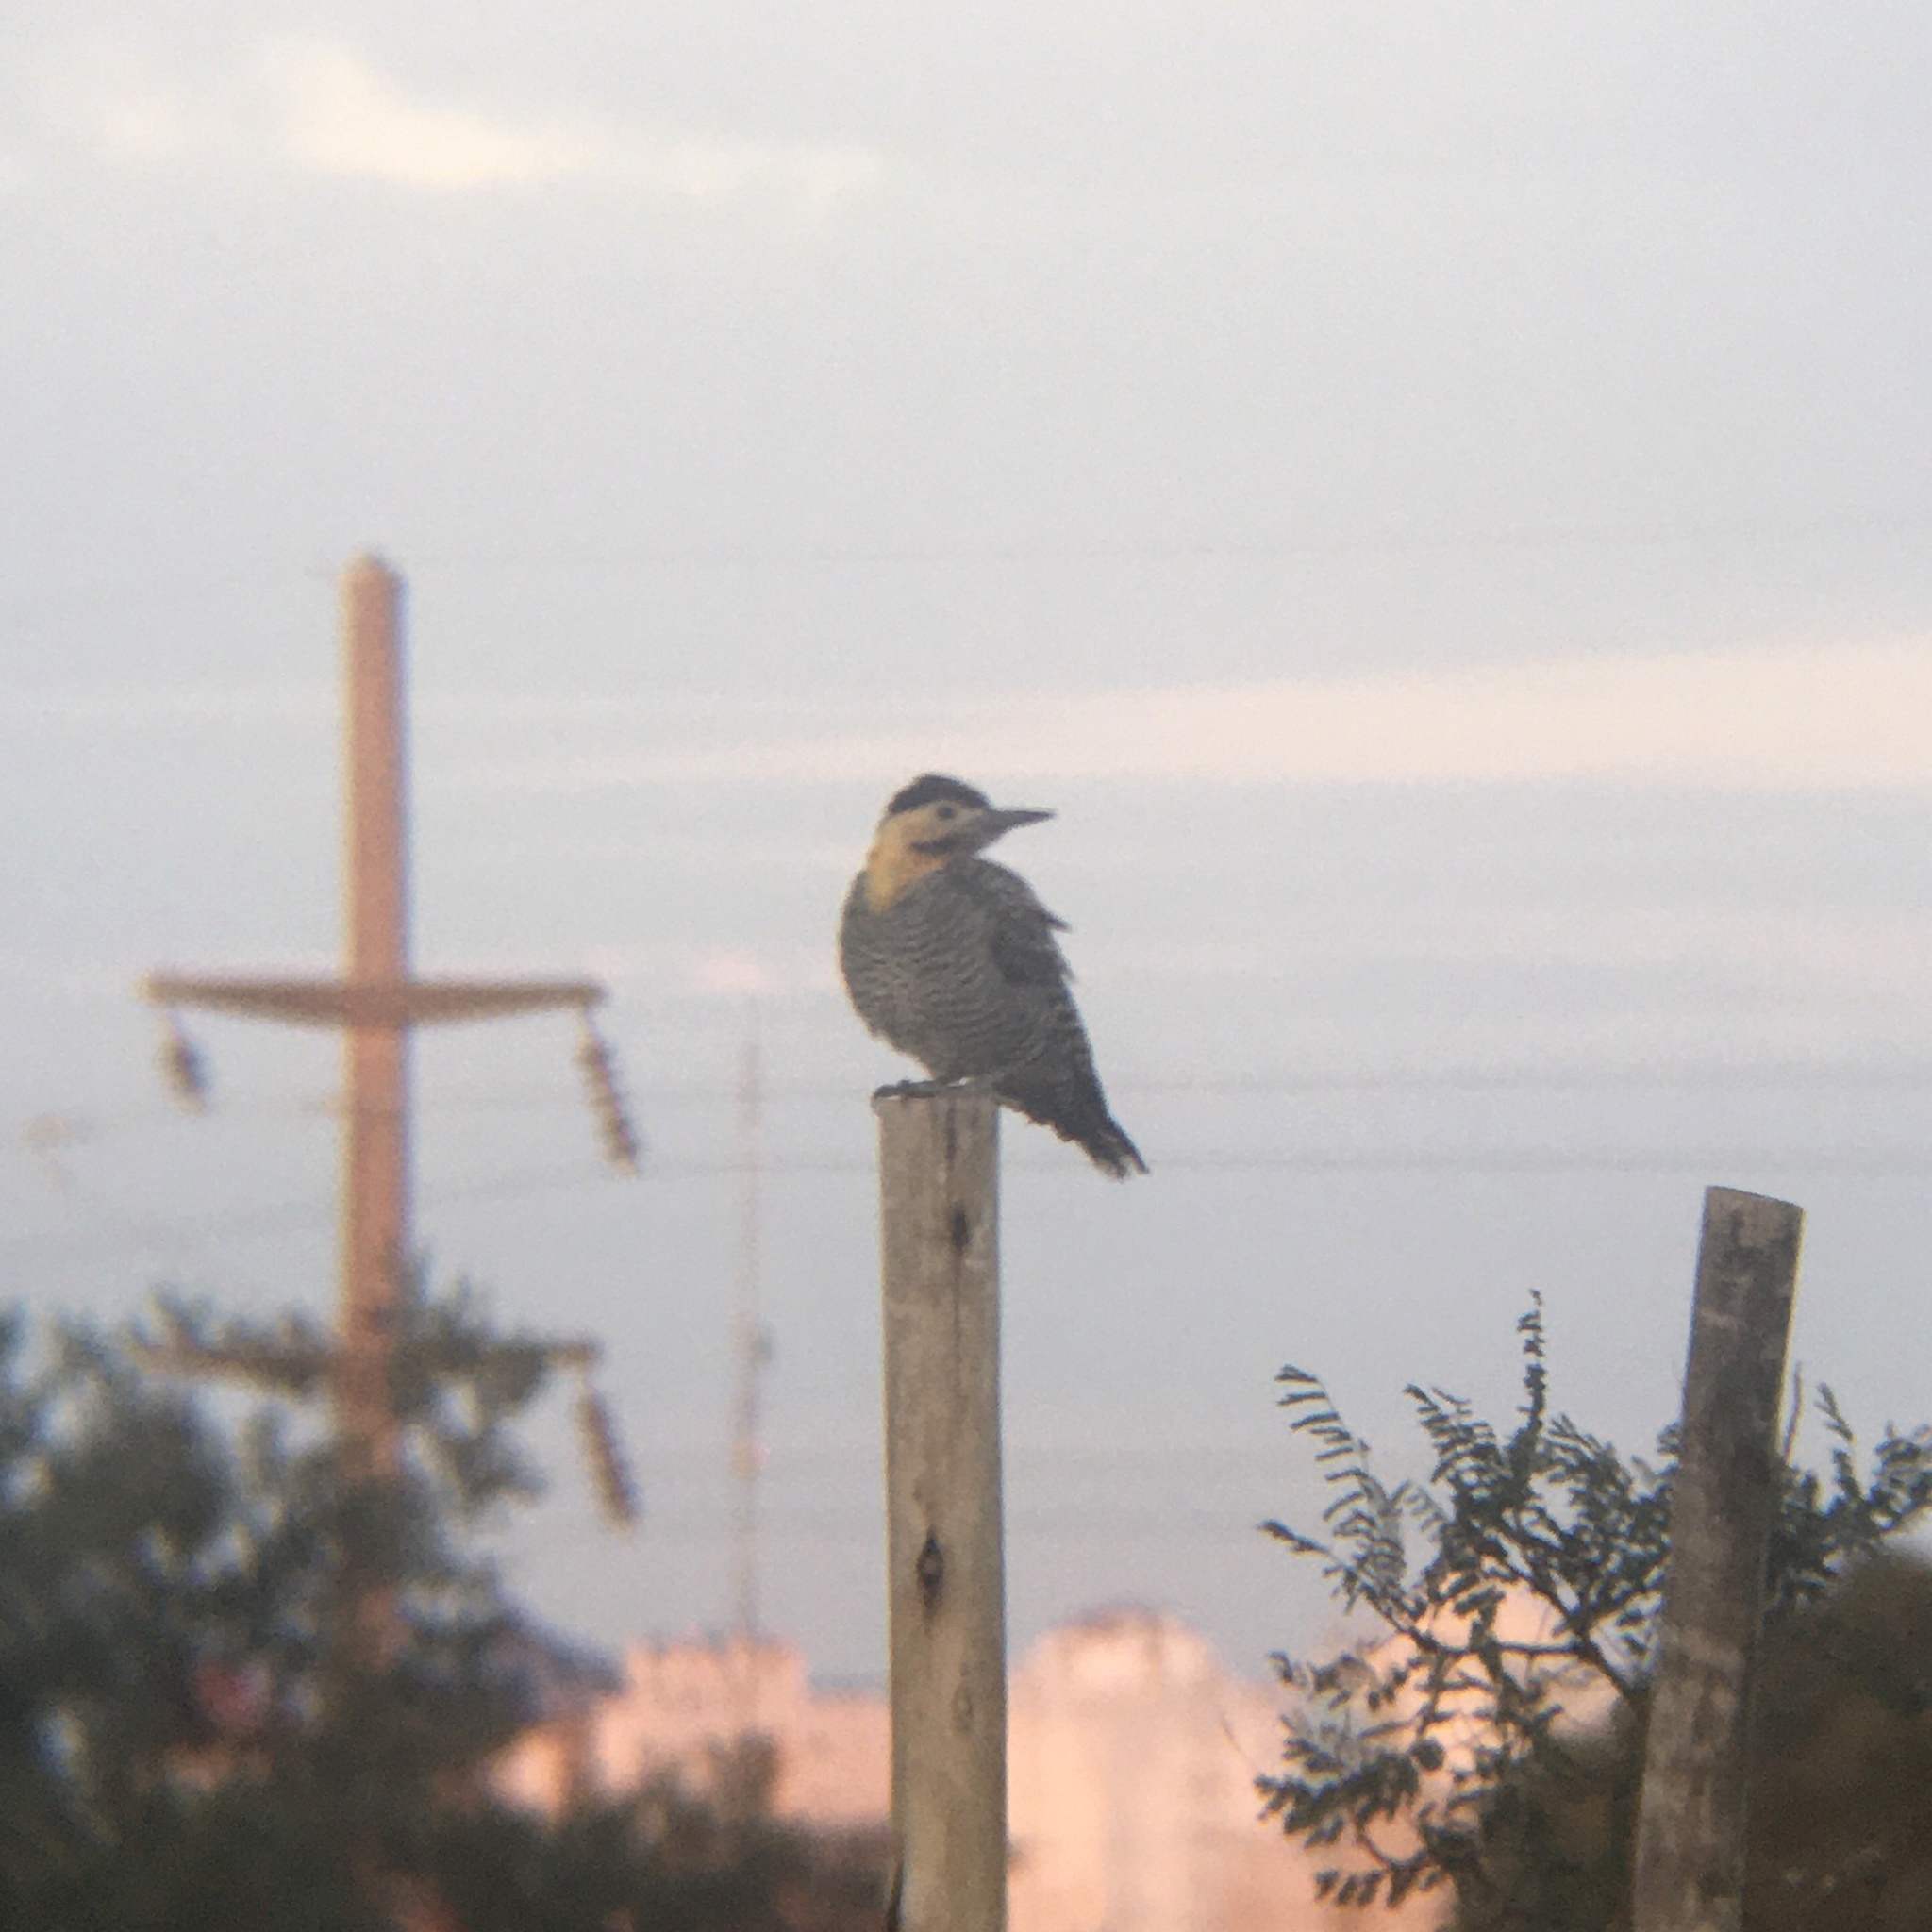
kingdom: Animalia
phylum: Chordata
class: Aves
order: Piciformes
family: Picidae
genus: Colaptes
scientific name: Colaptes campestris
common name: Campo flicker
